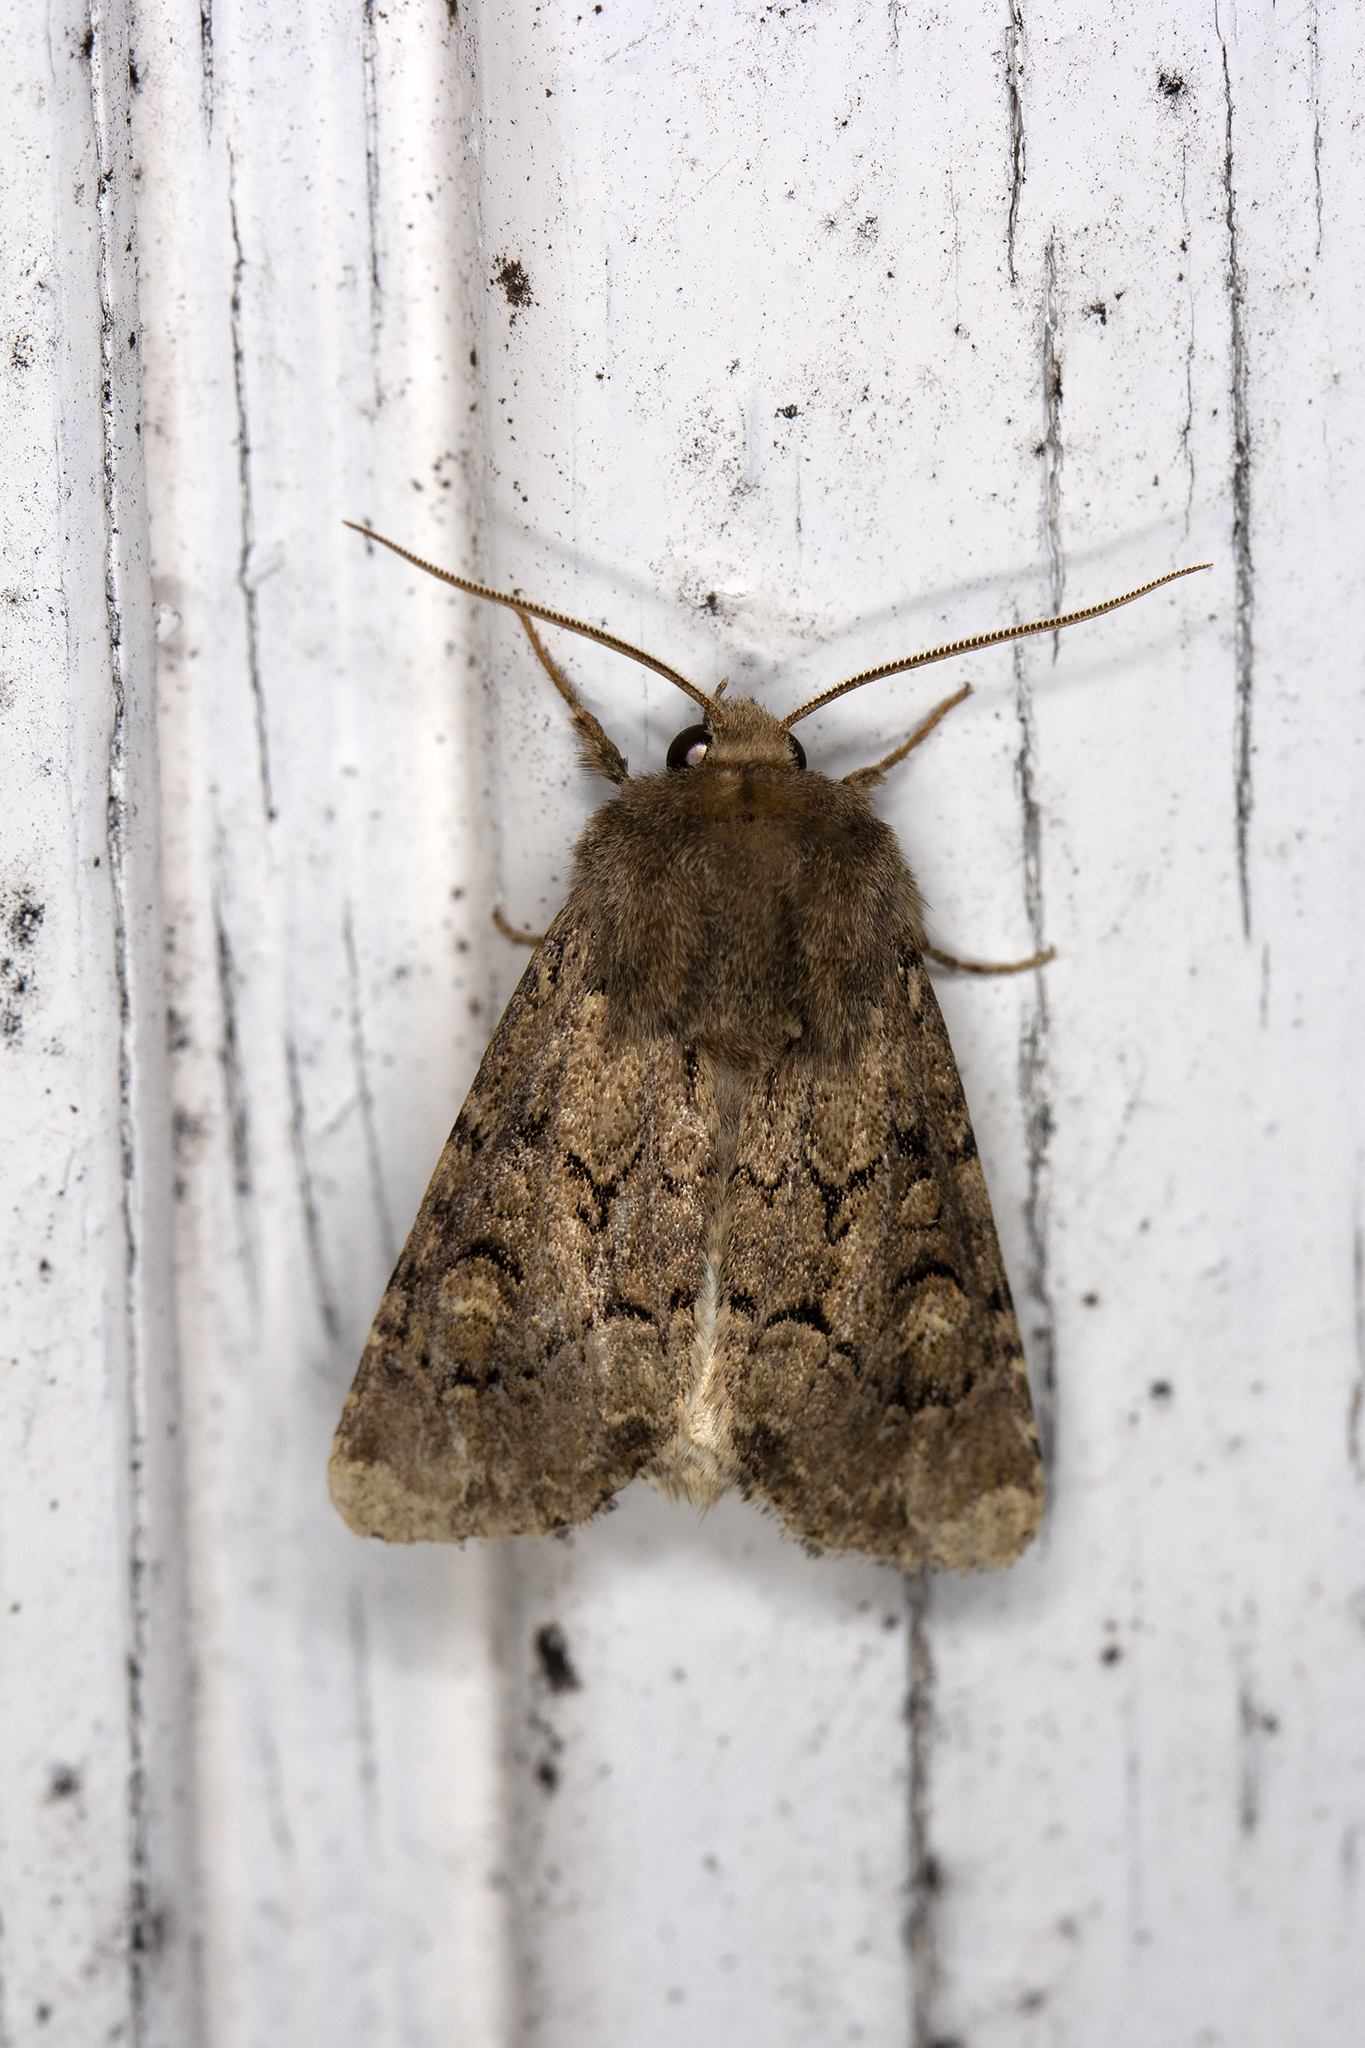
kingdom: Animalia
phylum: Arthropoda
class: Insecta
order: Lepidoptera
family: Noctuidae
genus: Luperina
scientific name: Luperina testacea
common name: Flounced rustic
